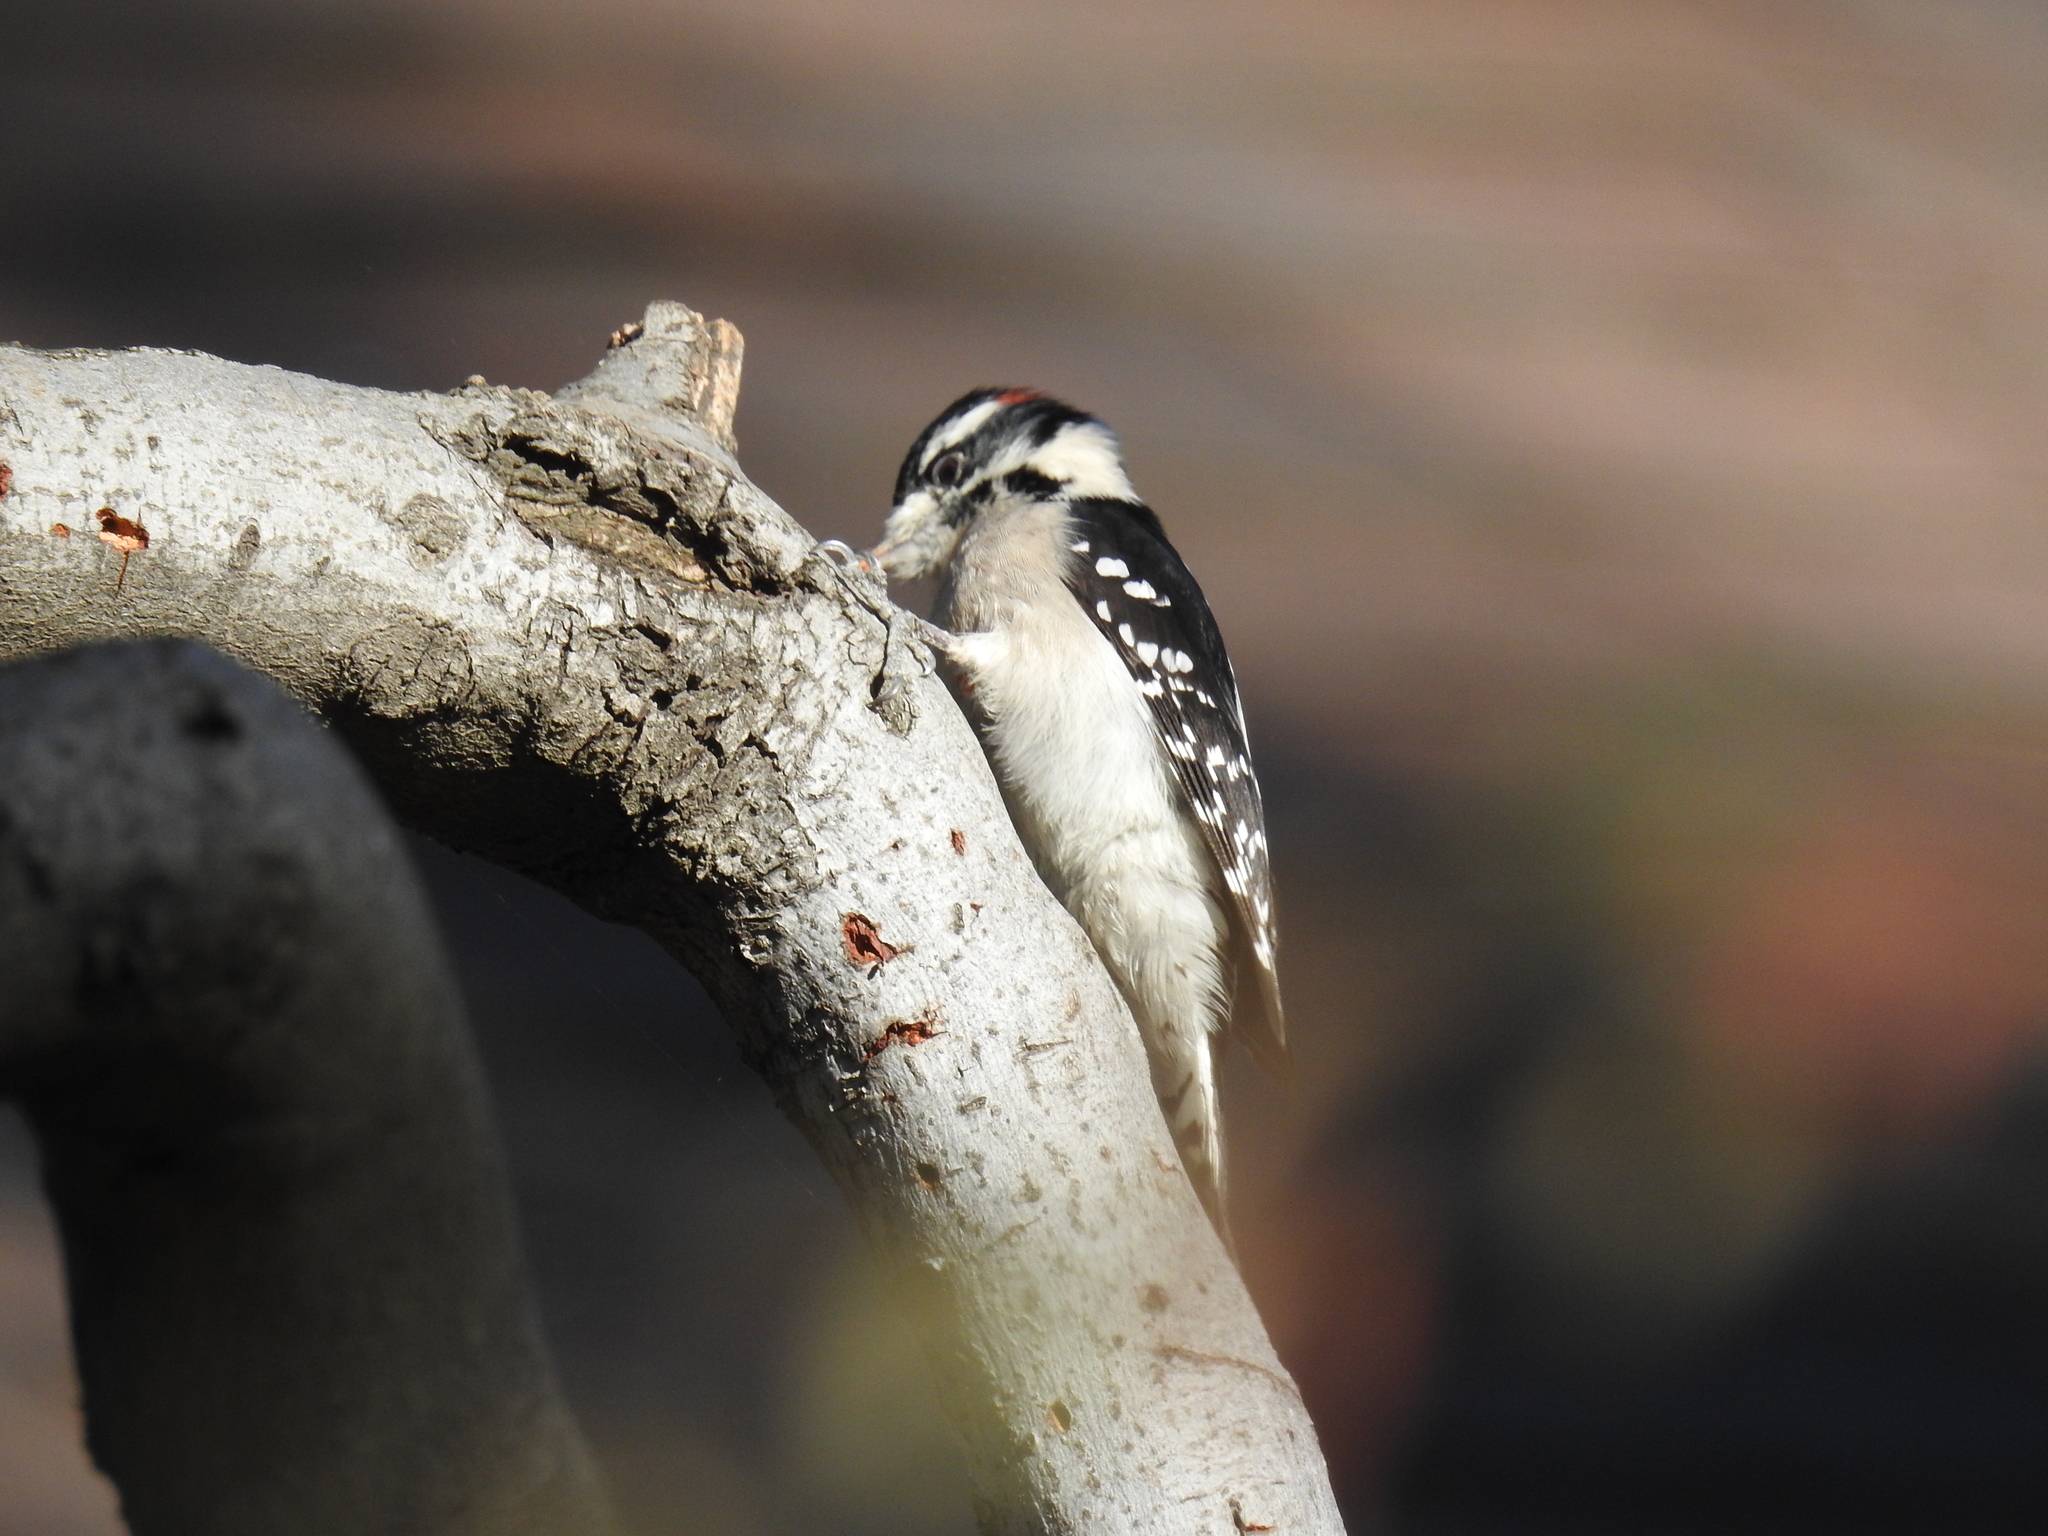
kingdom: Animalia
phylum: Chordata
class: Aves
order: Piciformes
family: Picidae
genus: Dryobates
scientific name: Dryobates pubescens
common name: Downy woodpecker
